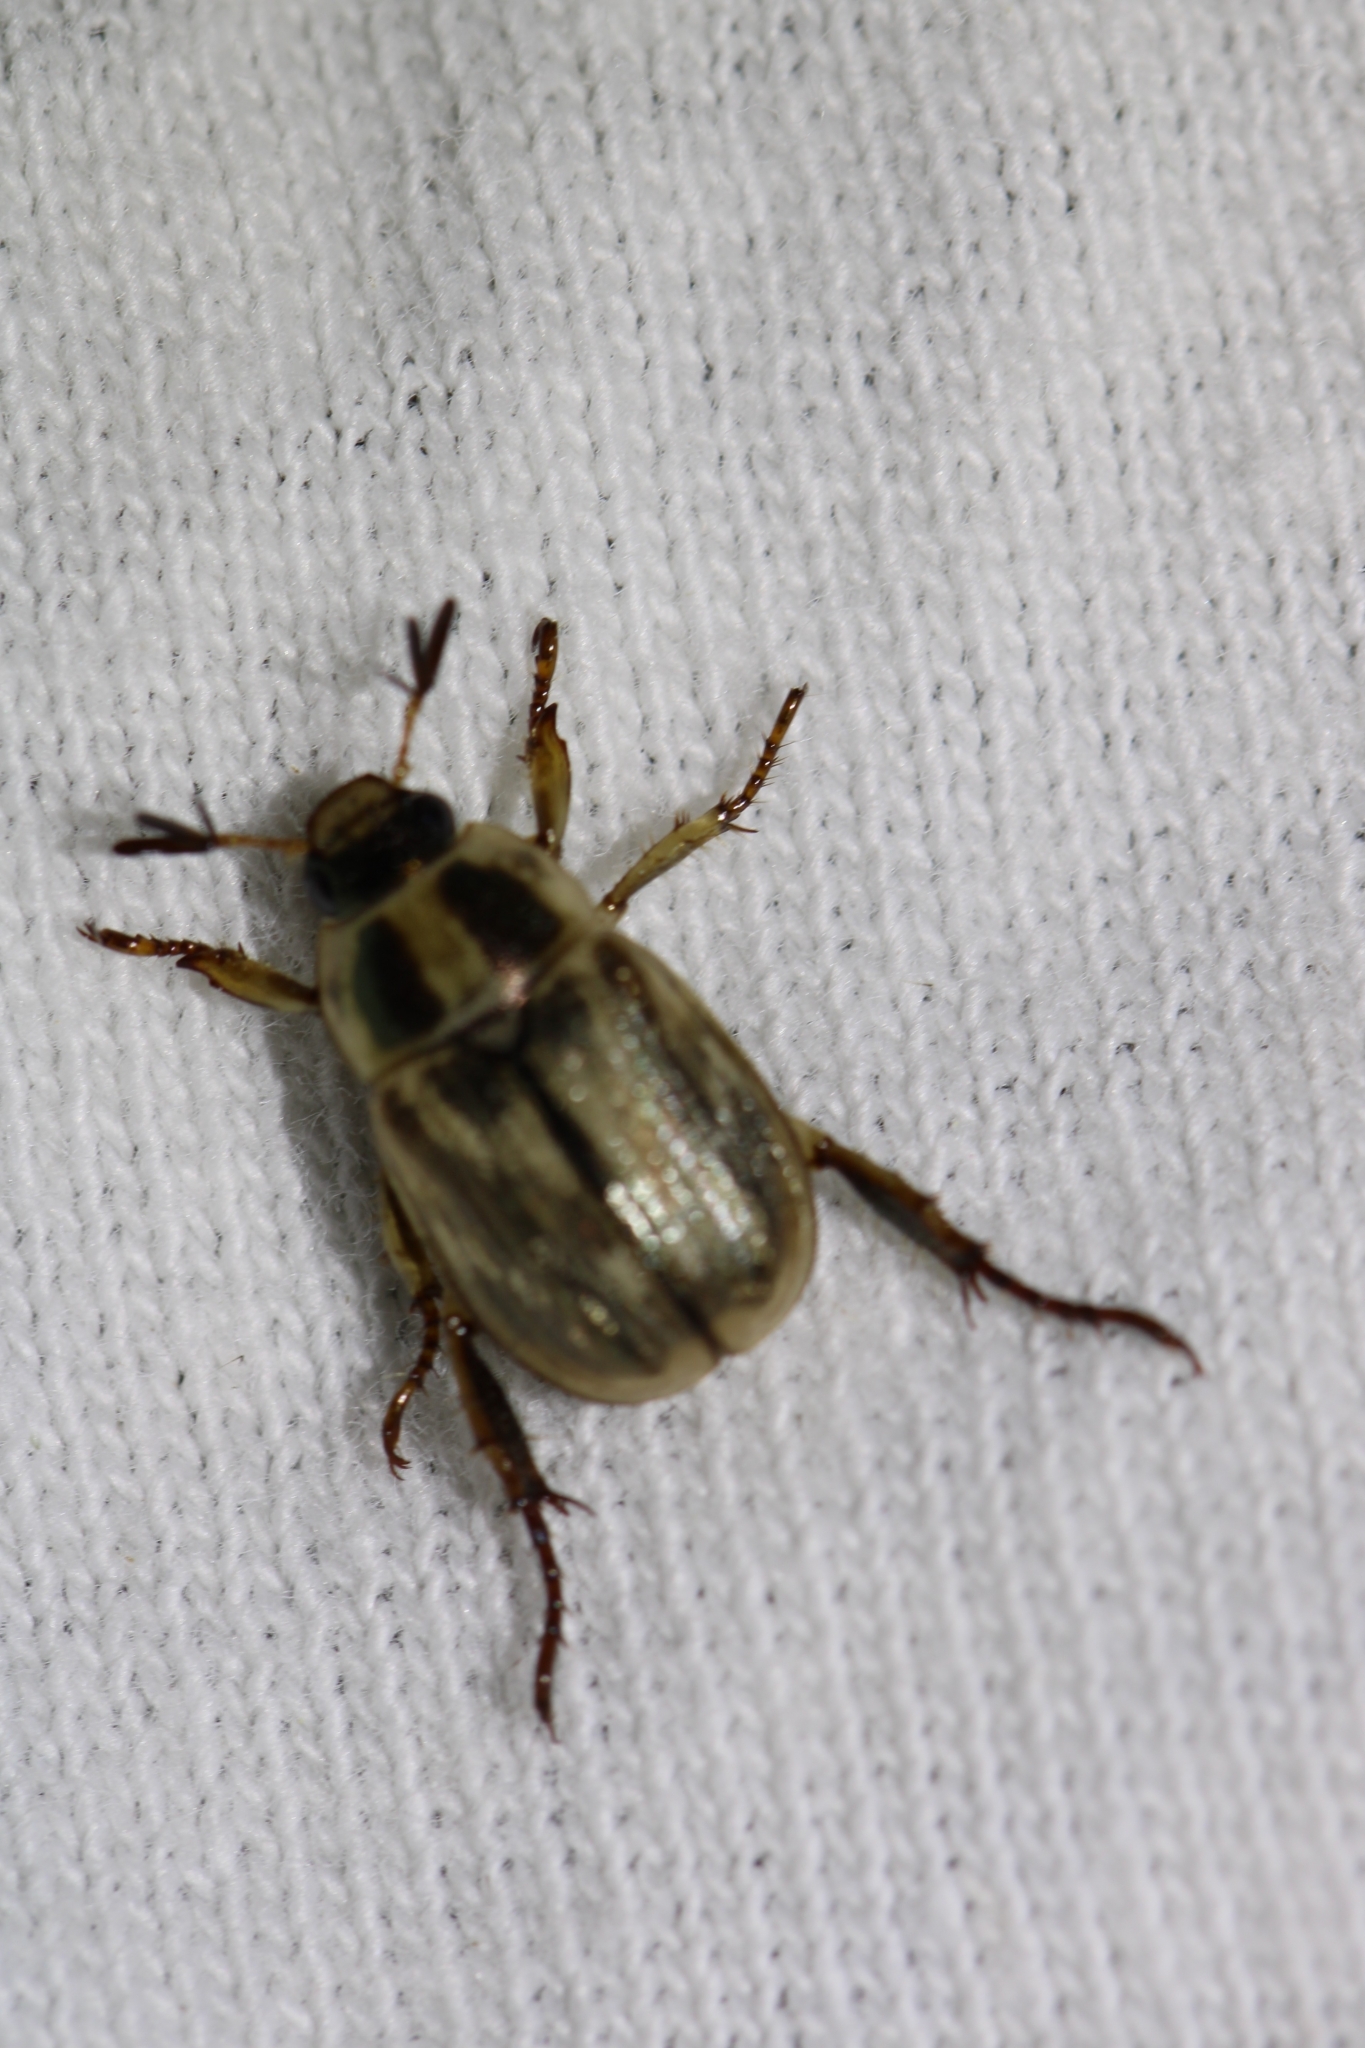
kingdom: Animalia
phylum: Arthropoda
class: Insecta
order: Coleoptera
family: Scarabaeidae
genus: Exomala
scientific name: Exomala orientalis
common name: Oriental beetle
